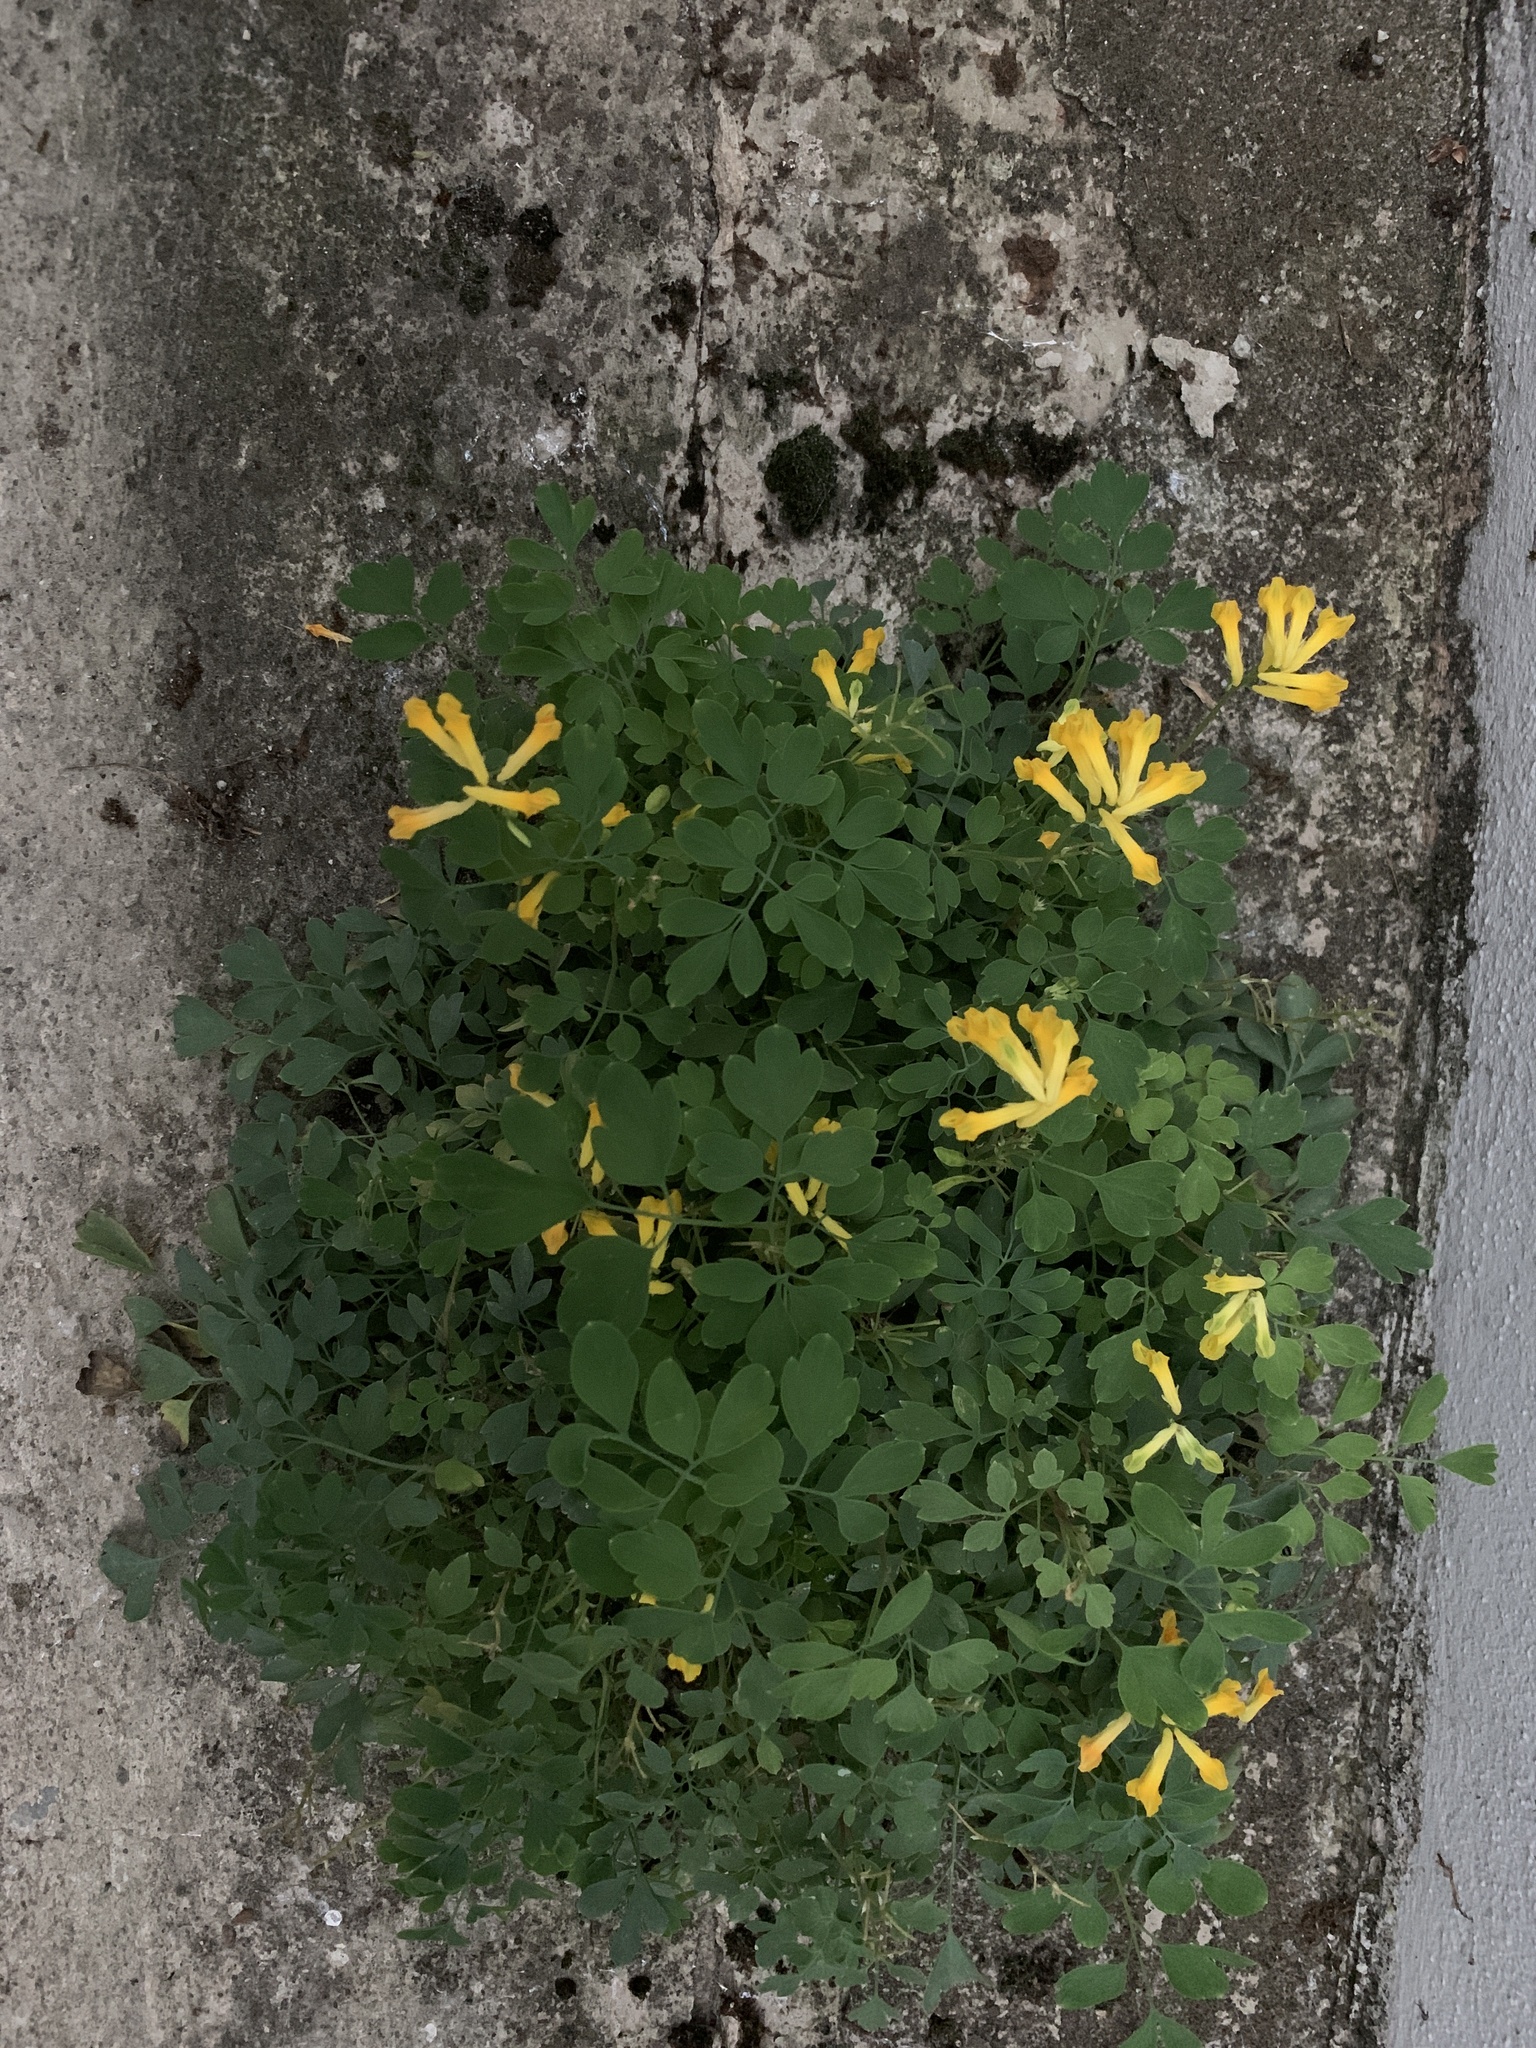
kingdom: Plantae
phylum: Tracheophyta
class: Magnoliopsida
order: Ranunculales
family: Papaveraceae
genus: Pseudofumaria
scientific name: Pseudofumaria lutea
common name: Yellow corydalis
